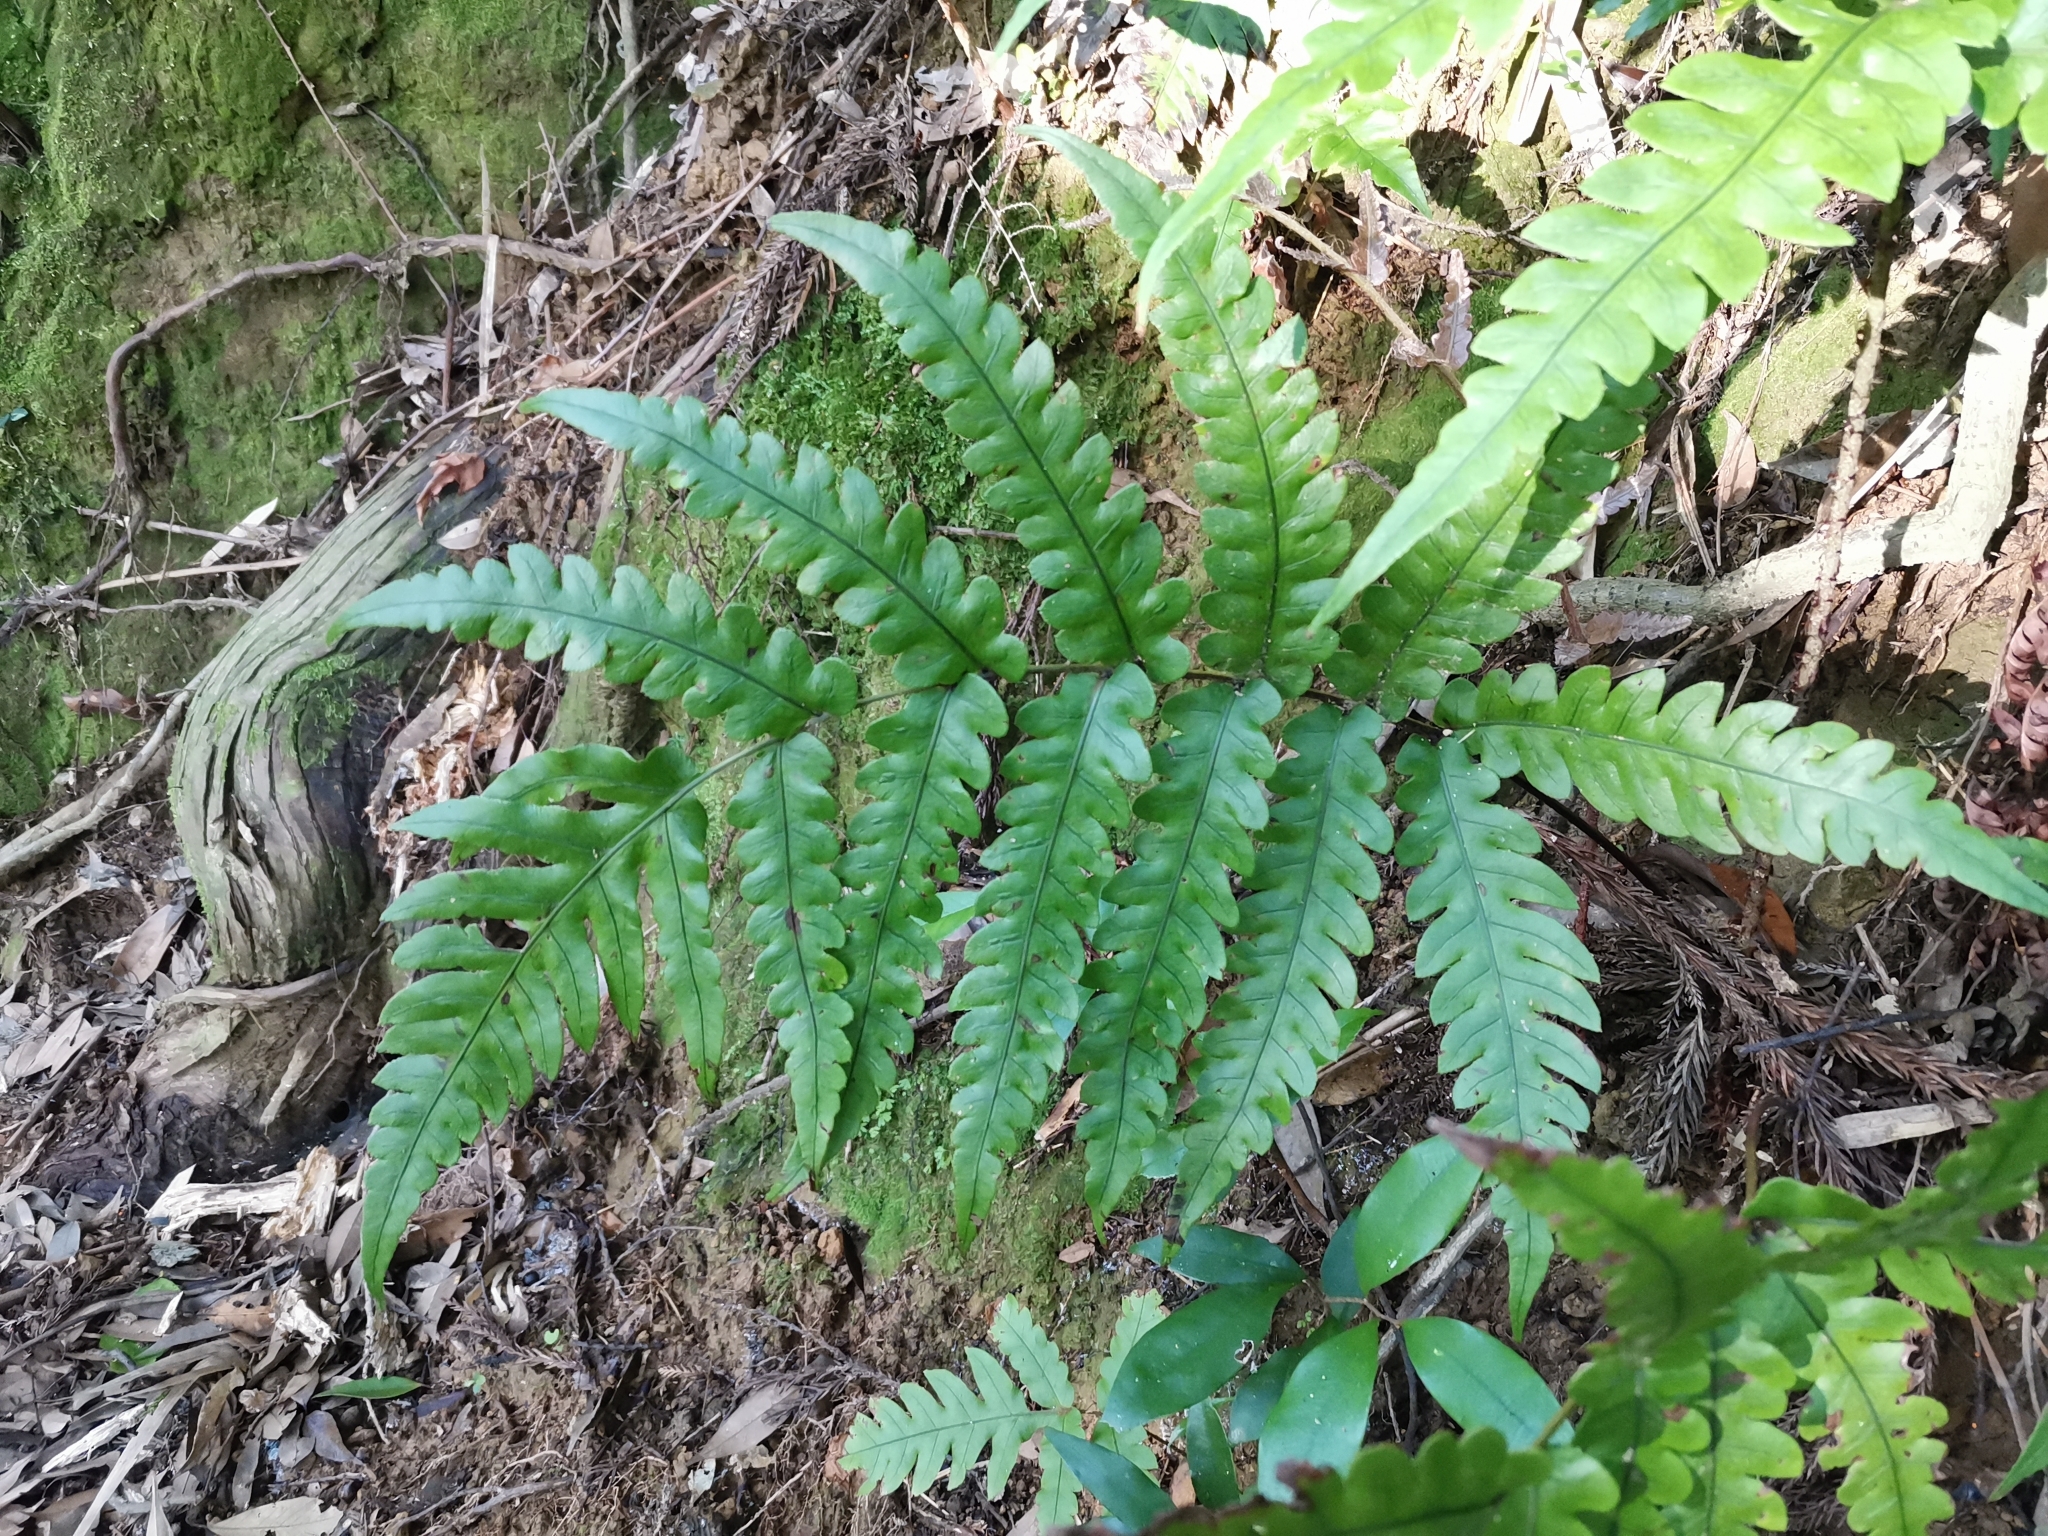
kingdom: Plantae
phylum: Tracheophyta
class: Polypodiopsida
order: Polypodiales
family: Blechnaceae
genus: Woodwardia
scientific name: Woodwardia japonica
